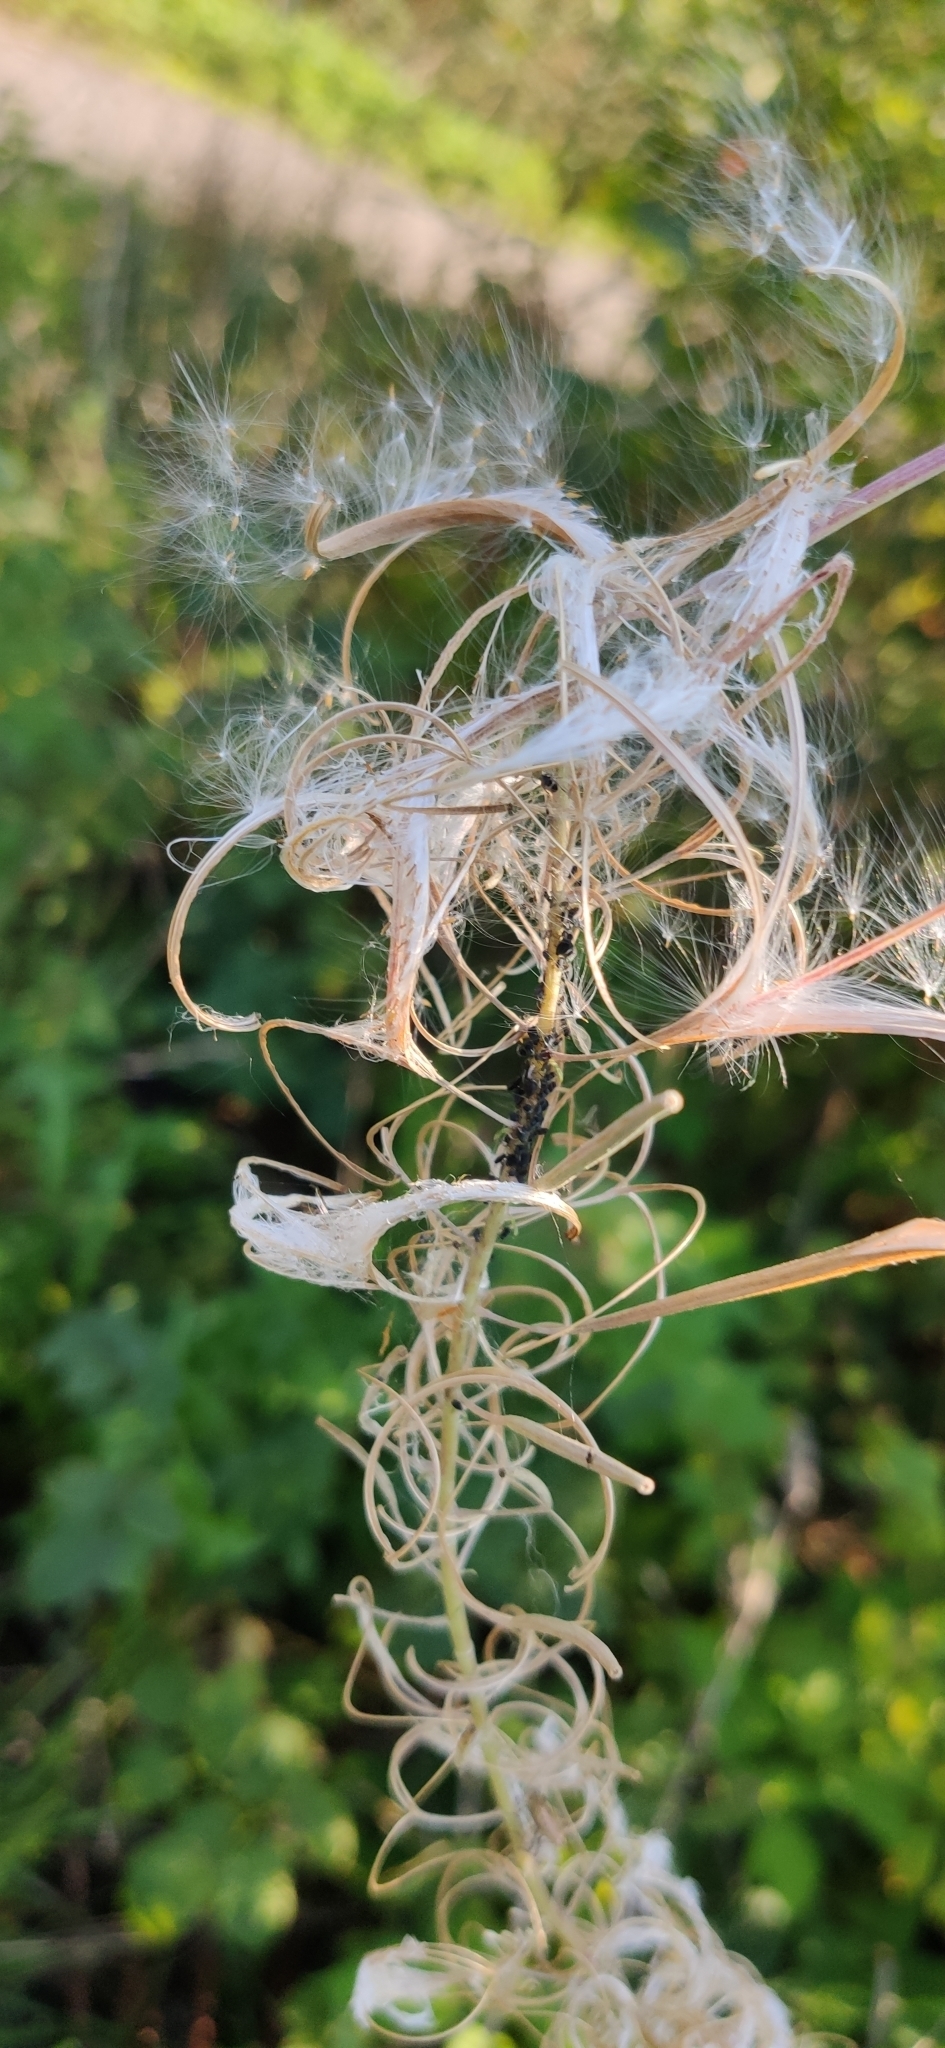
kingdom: Plantae
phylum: Tracheophyta
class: Magnoliopsida
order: Myrtales
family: Onagraceae
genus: Chamaenerion
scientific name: Chamaenerion angustifolium
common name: Fireweed
